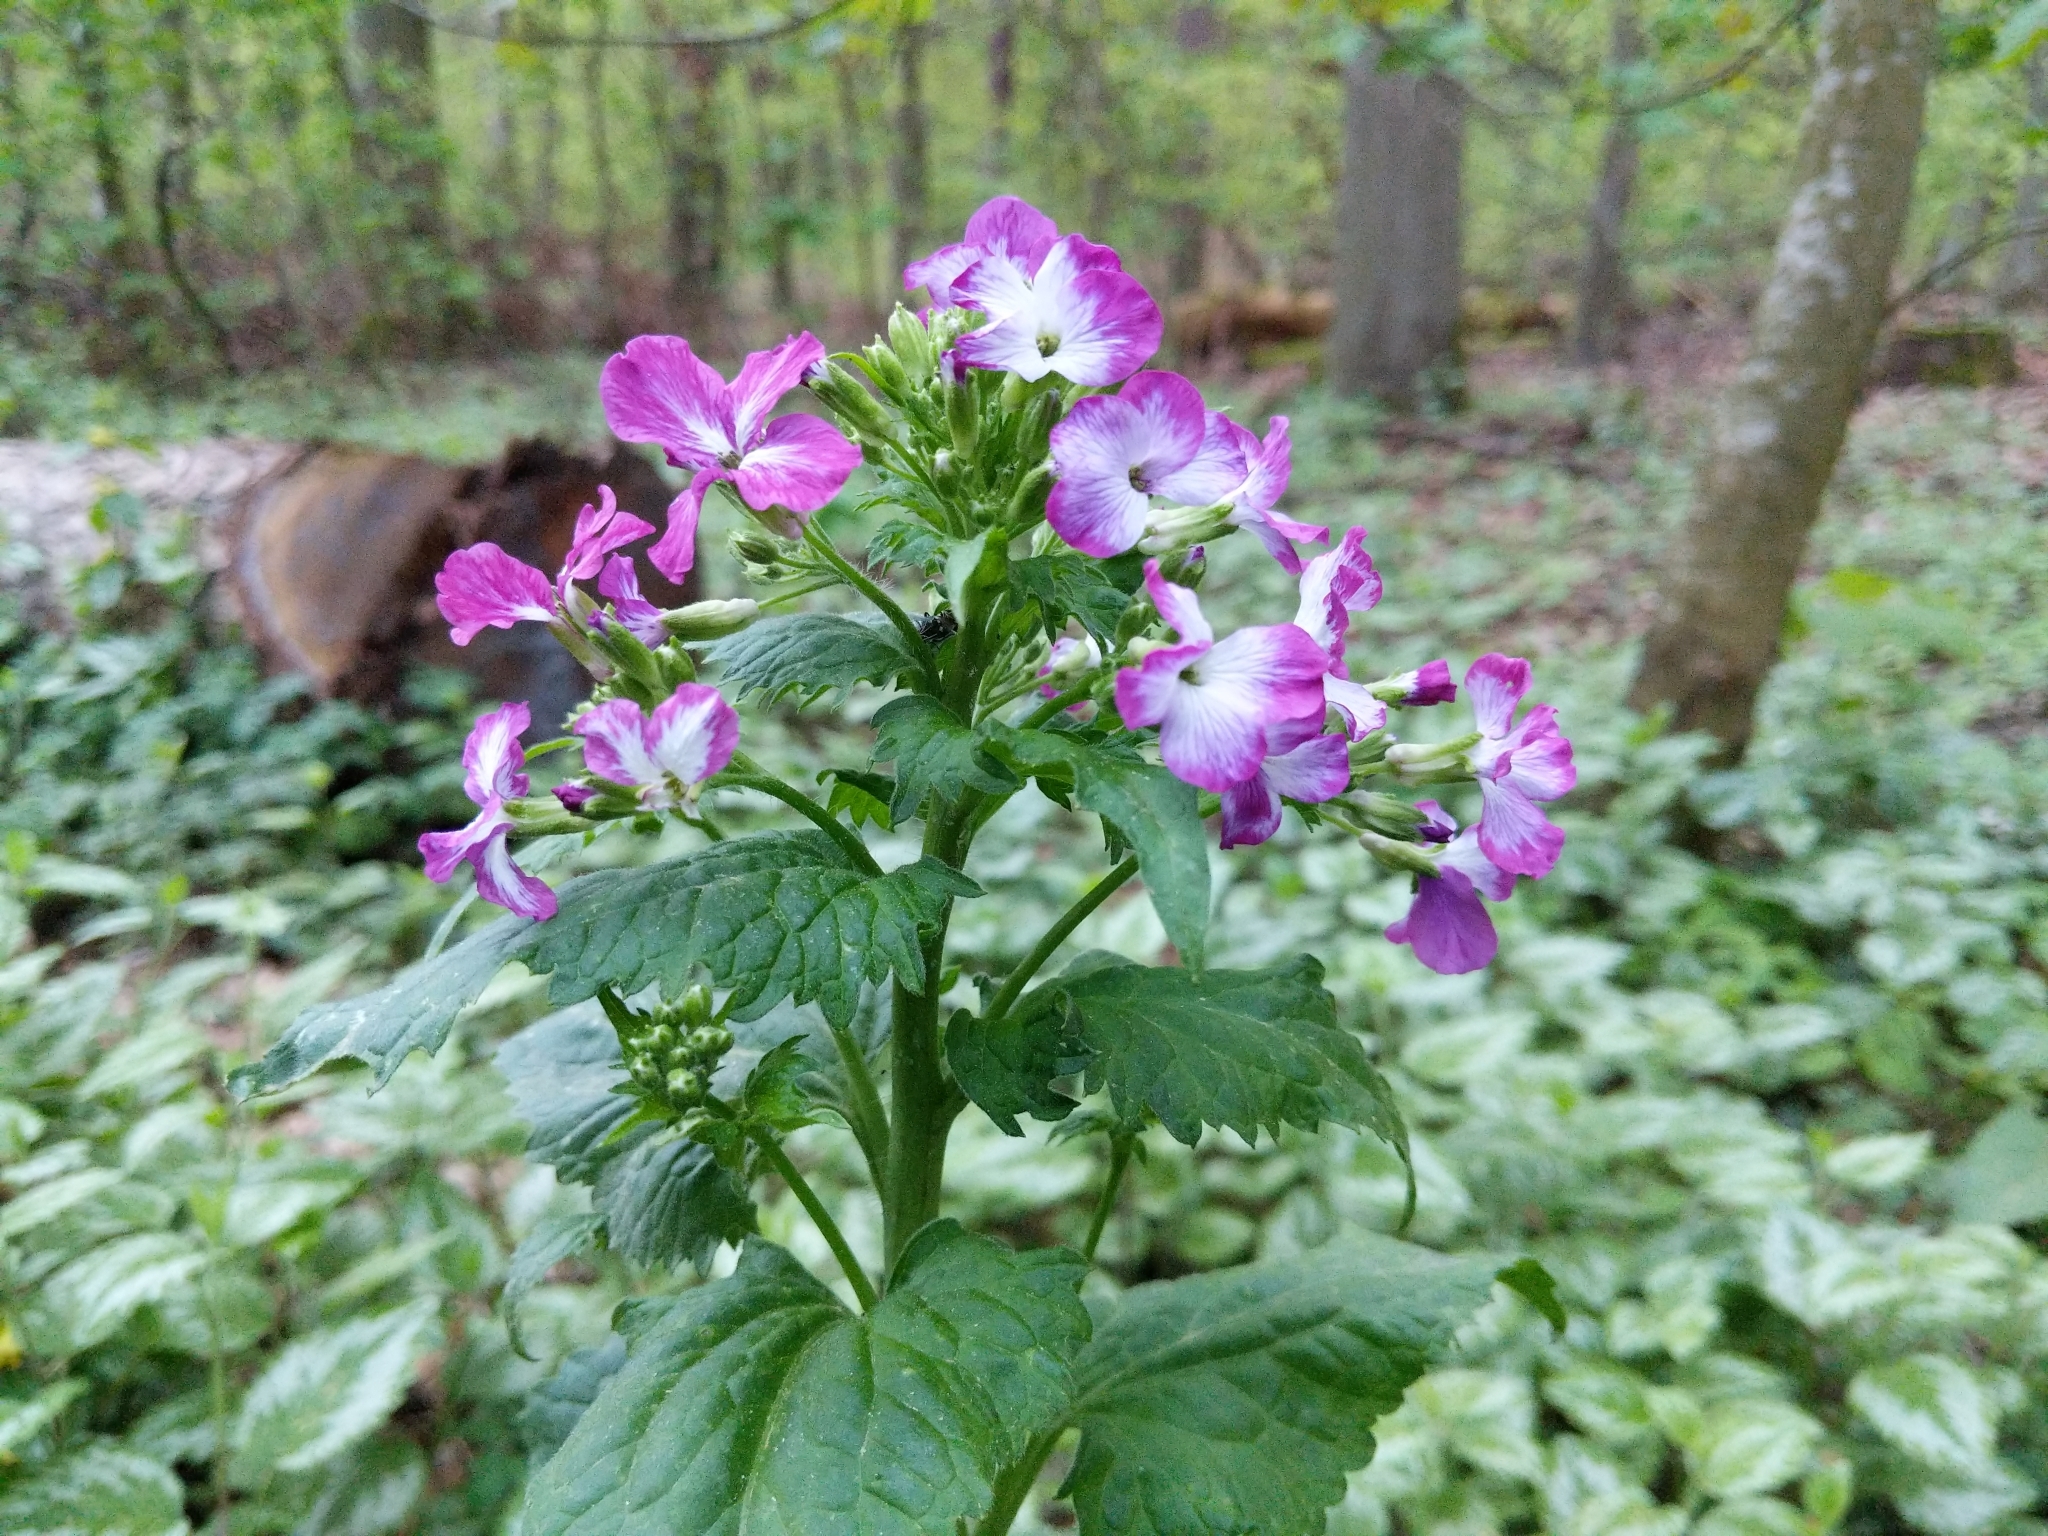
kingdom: Plantae
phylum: Tracheophyta
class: Magnoliopsida
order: Brassicales
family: Brassicaceae
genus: Lunaria
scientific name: Lunaria annua
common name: Honesty
